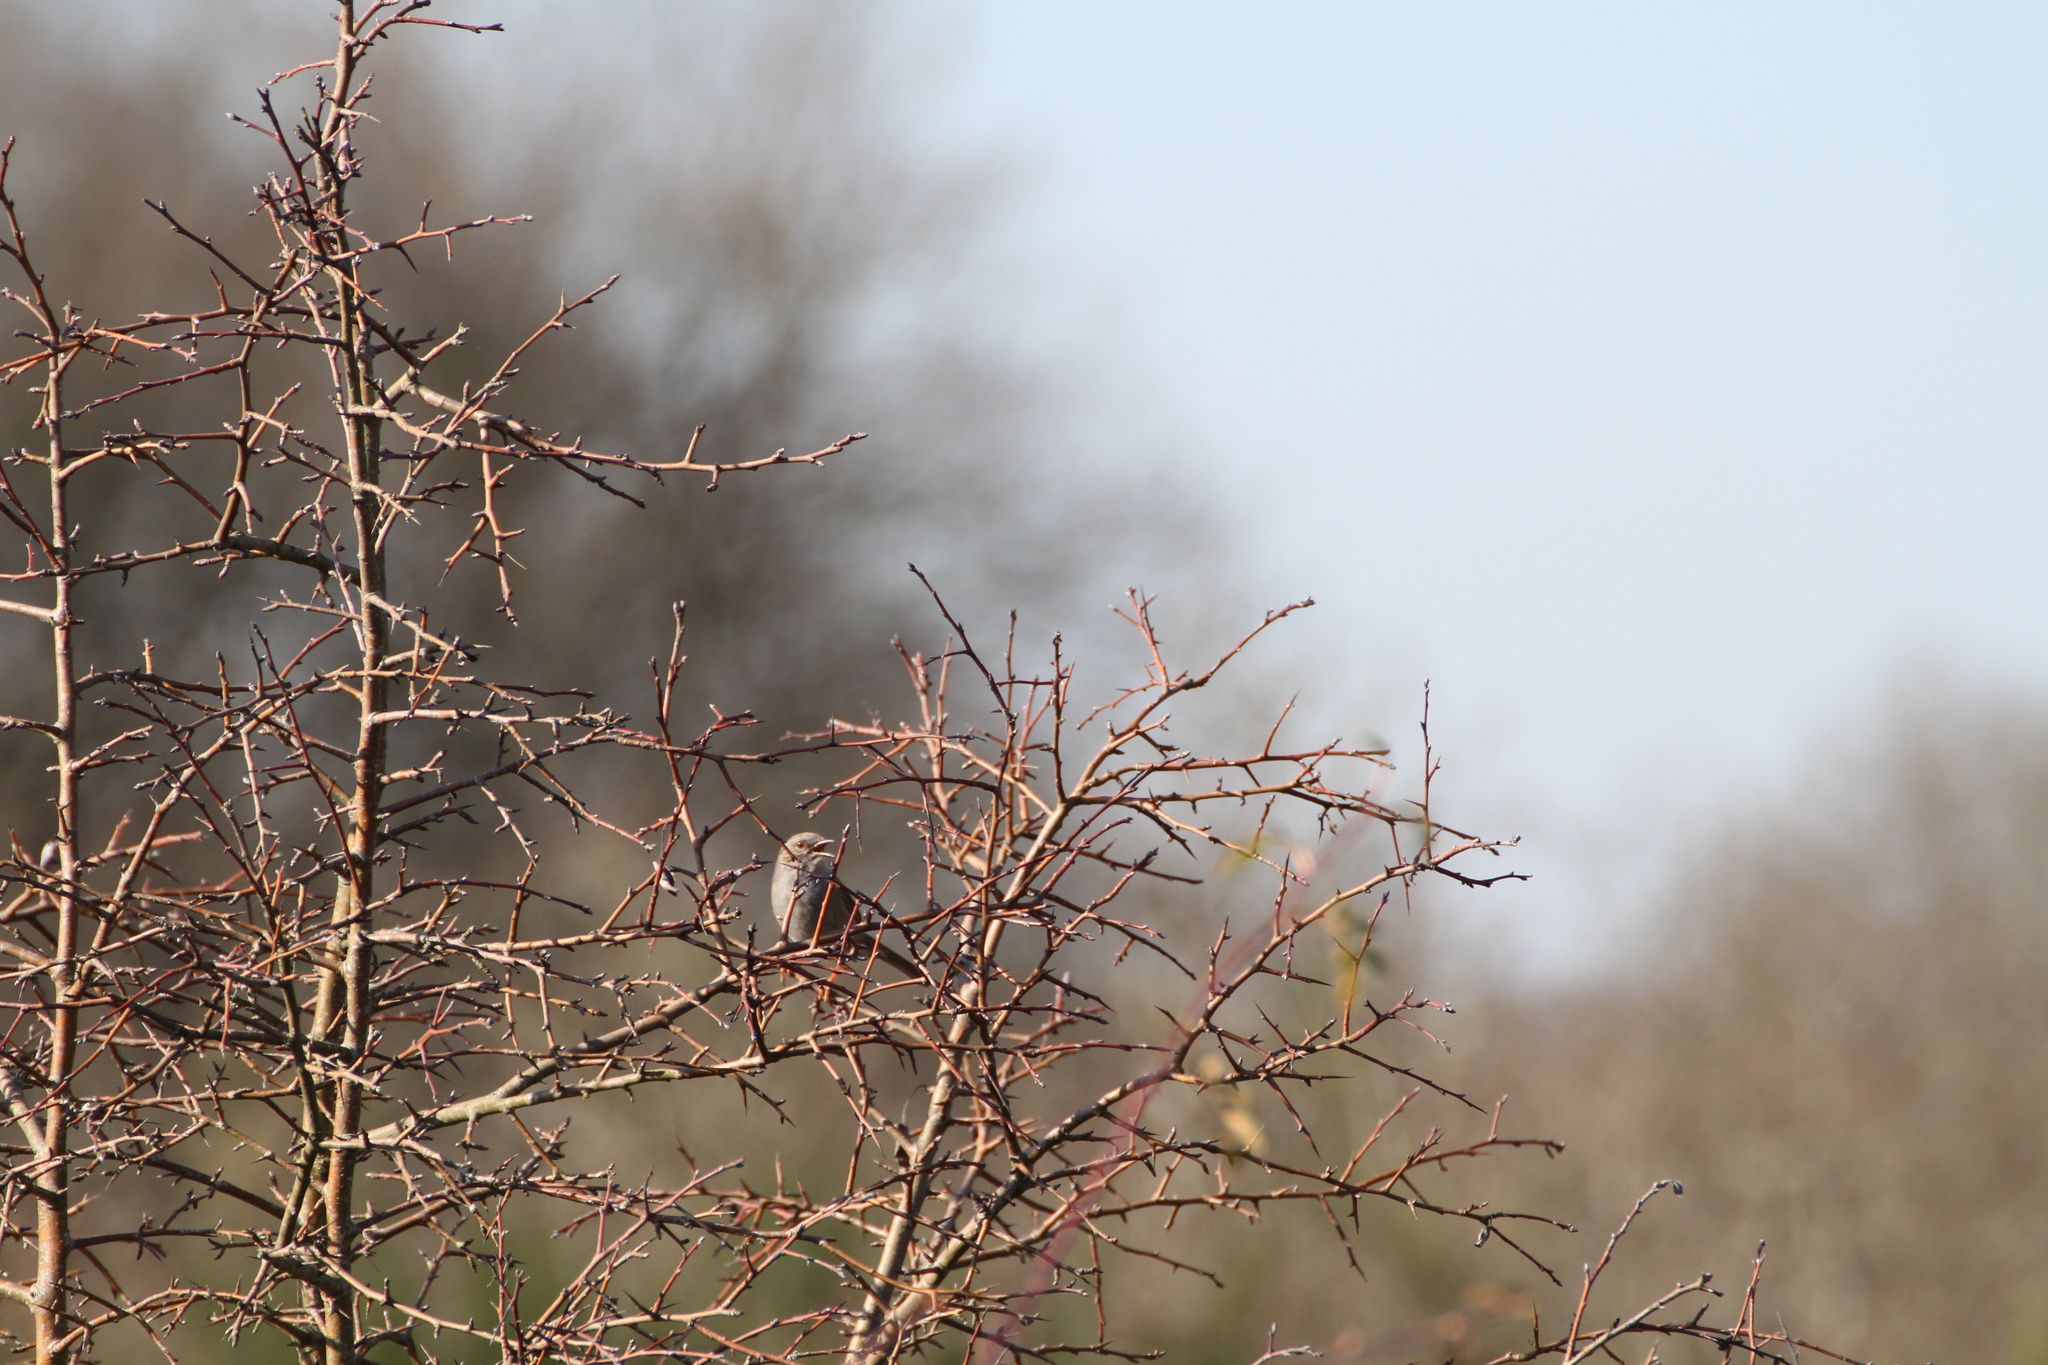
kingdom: Animalia
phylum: Chordata
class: Aves
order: Passeriformes
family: Prunellidae
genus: Prunella
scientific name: Prunella modularis
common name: Dunnock
